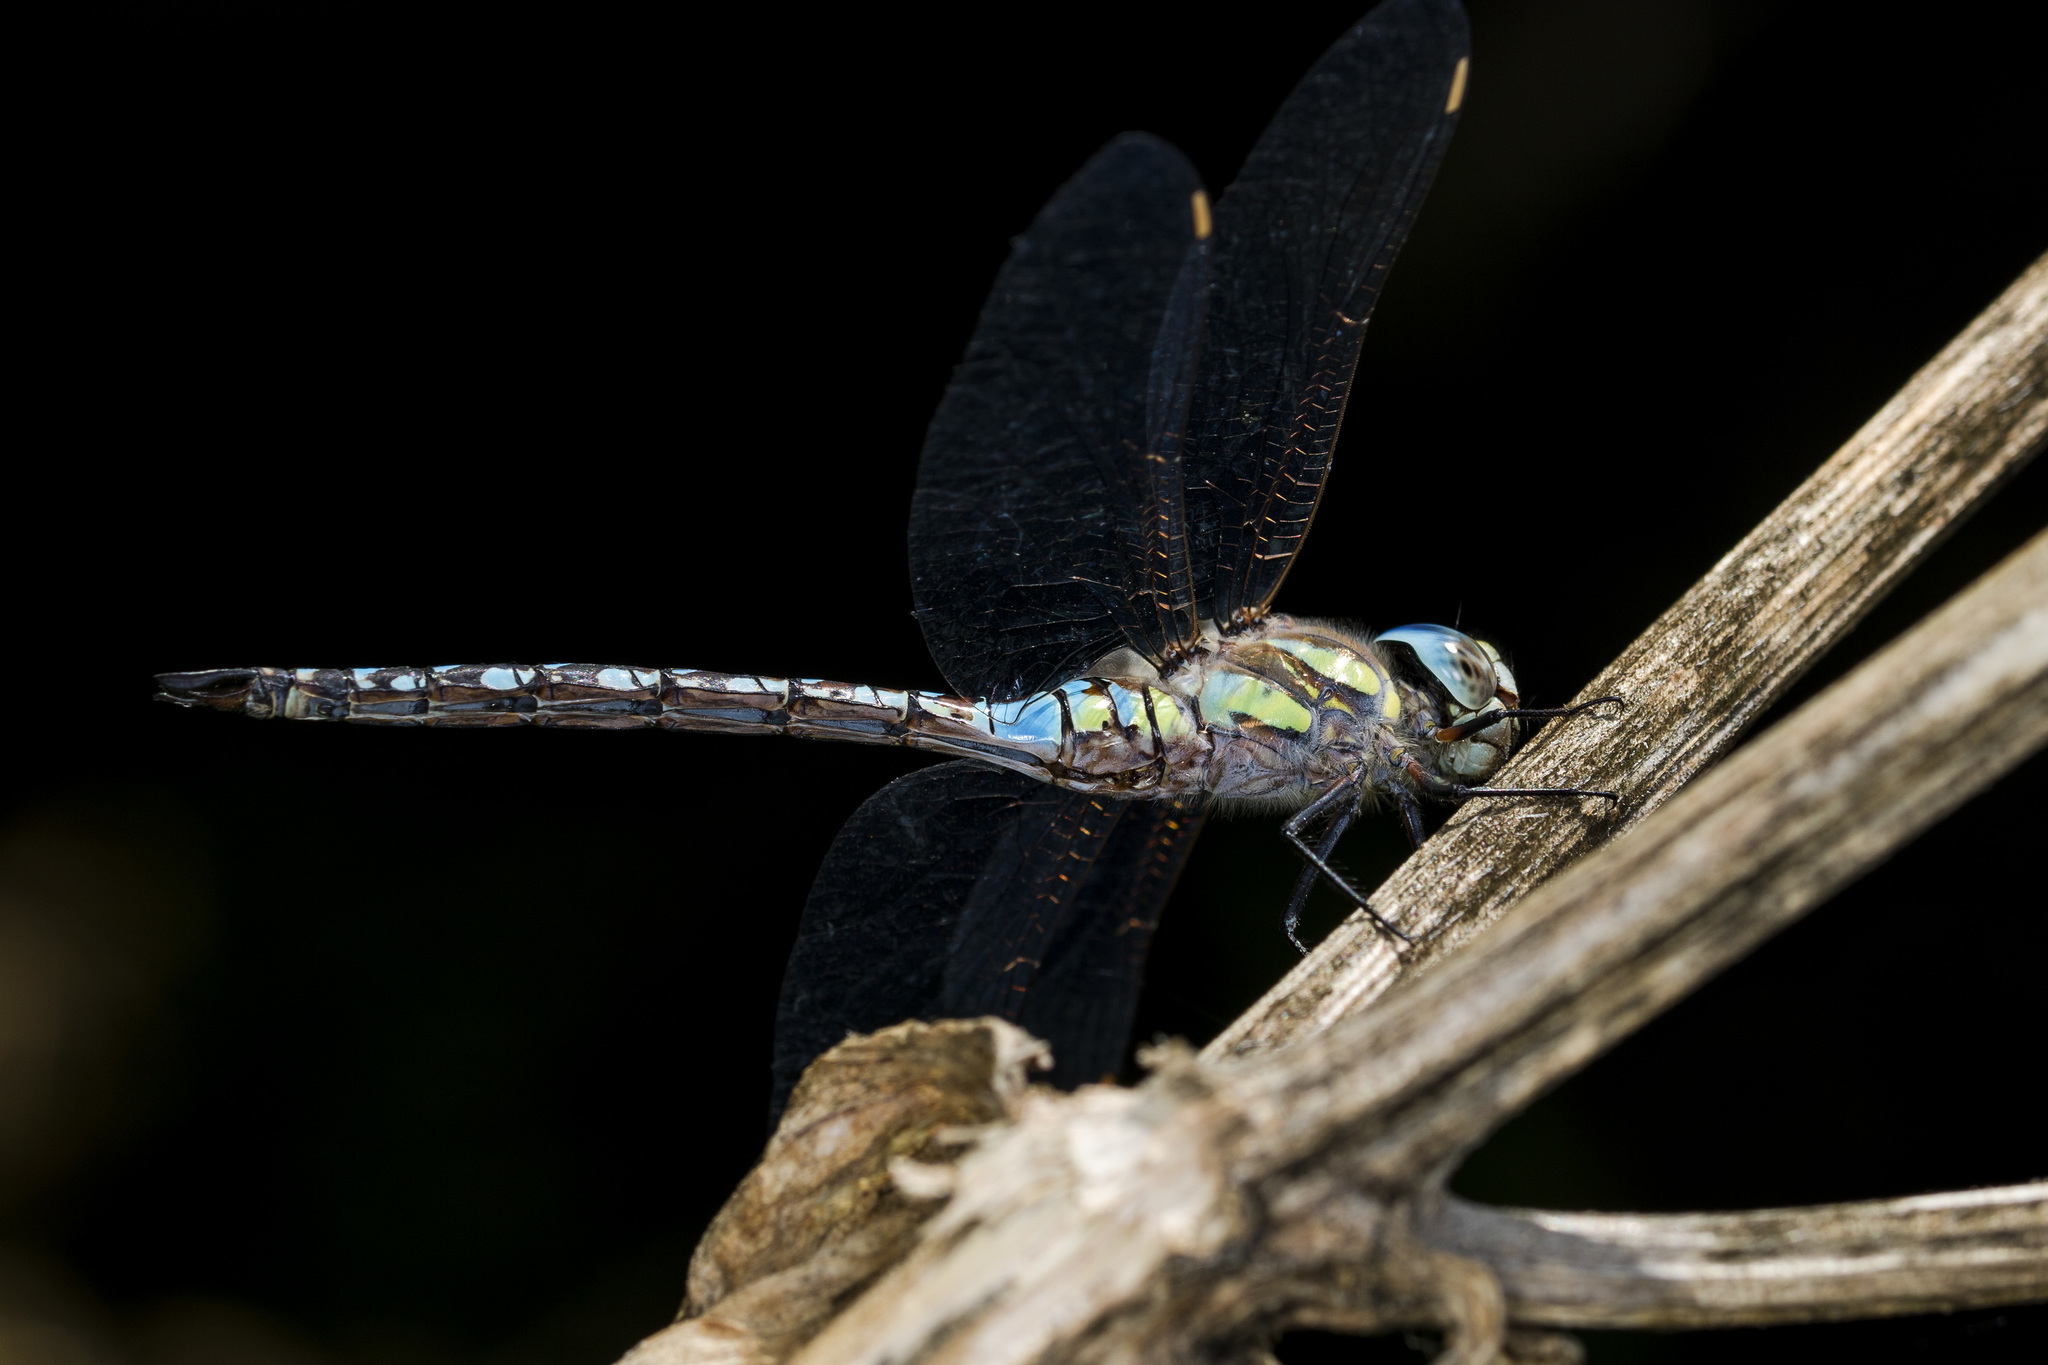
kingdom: Animalia
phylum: Arthropoda
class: Insecta
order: Odonata
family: Aeshnidae
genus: Aeshna
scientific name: Aeshna mixta
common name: Migrant hawker
